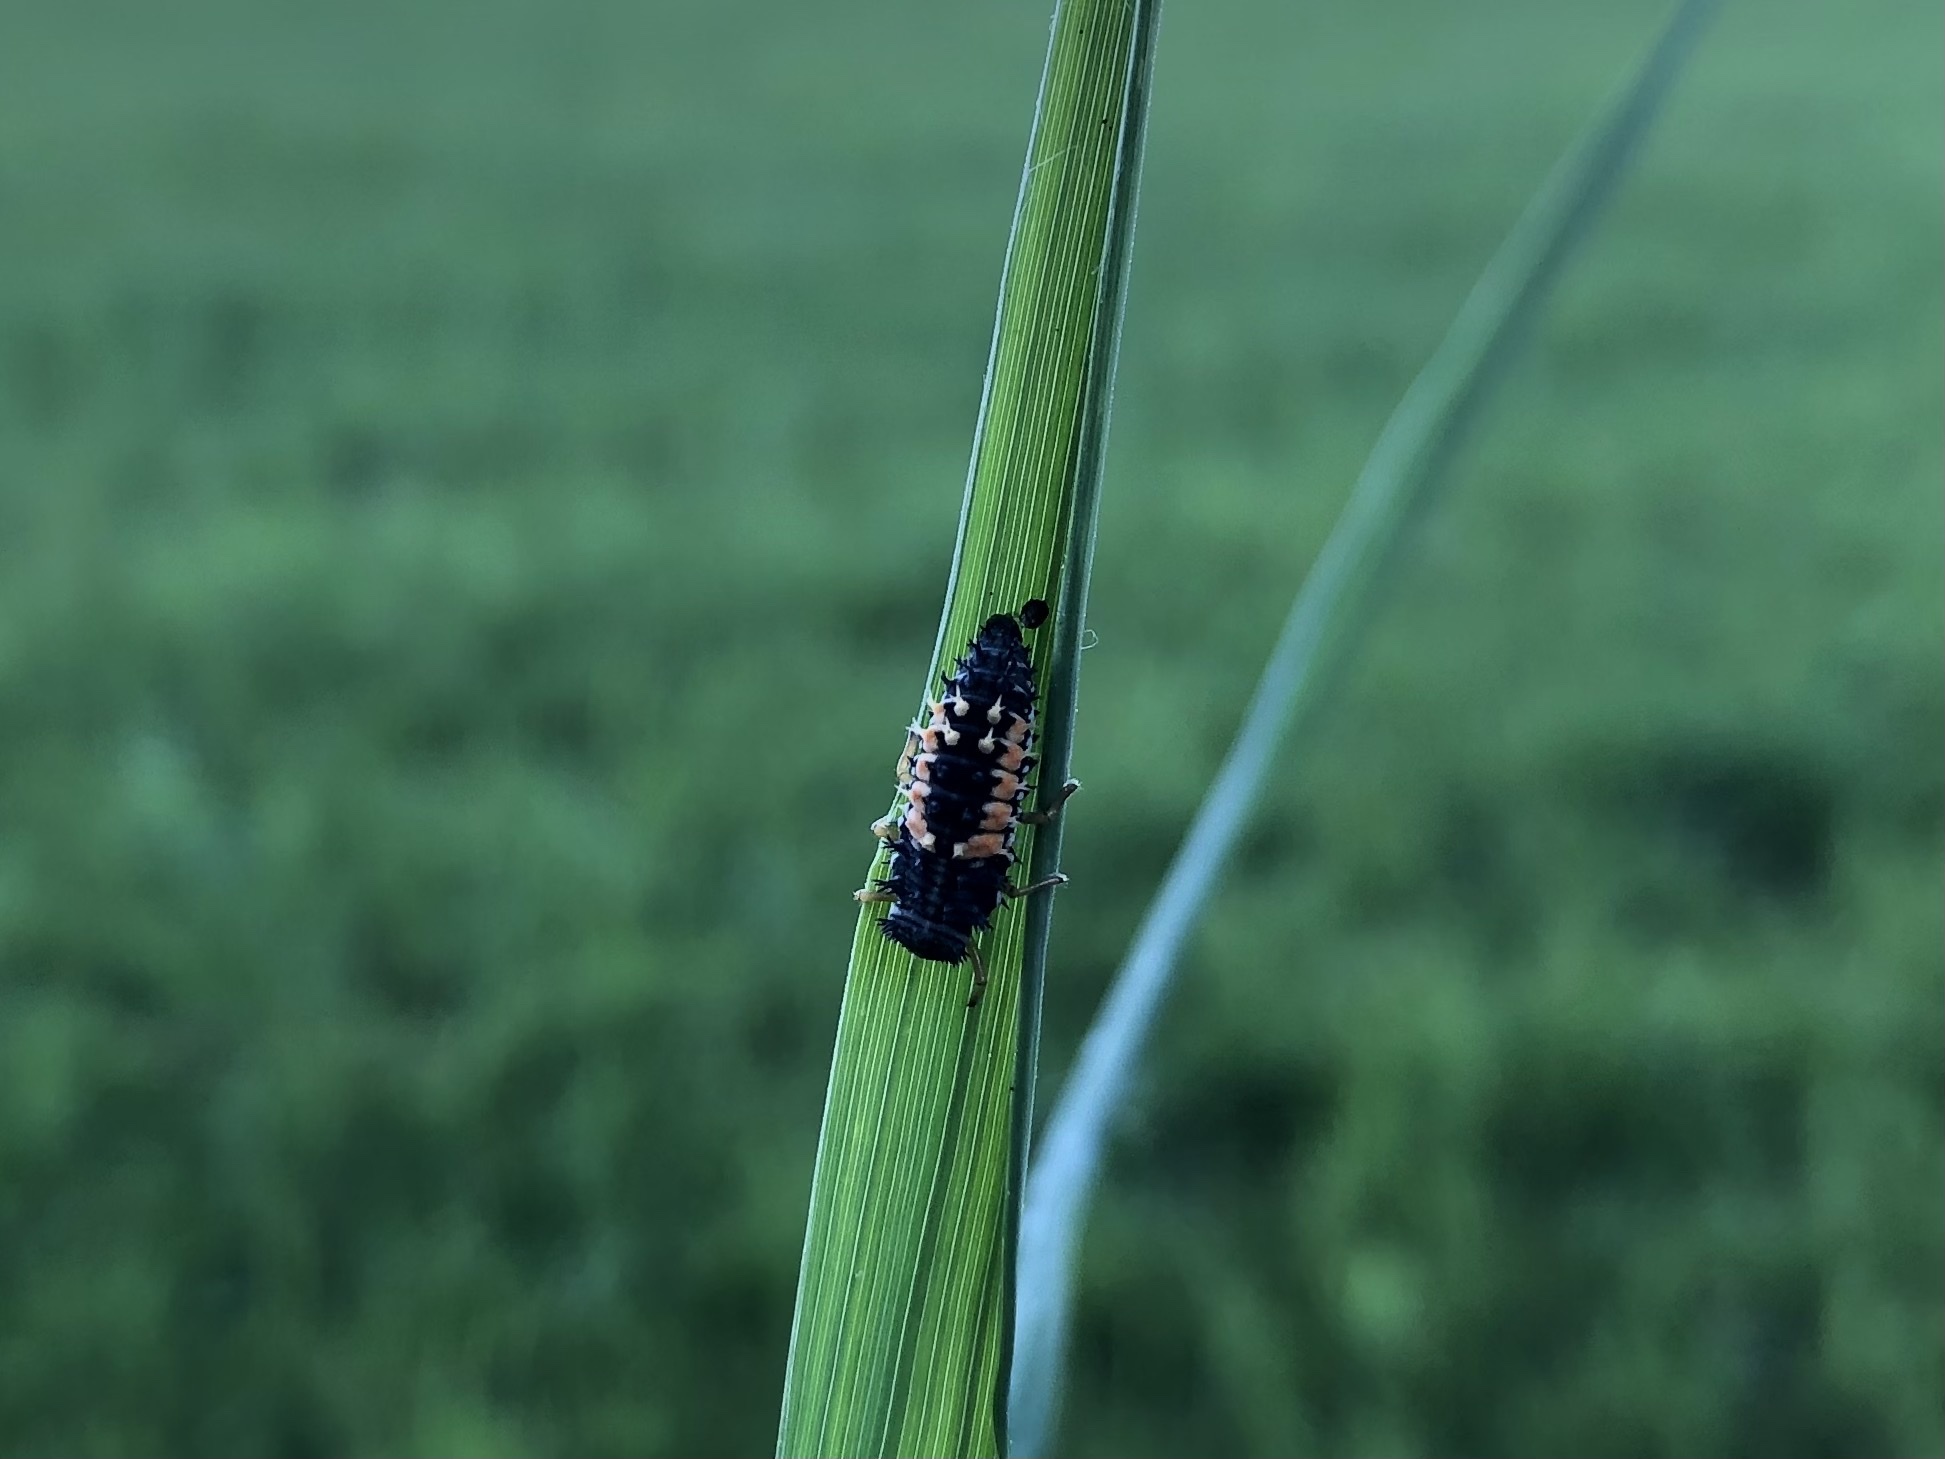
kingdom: Animalia
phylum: Arthropoda
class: Insecta
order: Coleoptera
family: Coccinellidae
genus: Harmonia
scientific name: Harmonia axyridis
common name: Harlequin ladybird
